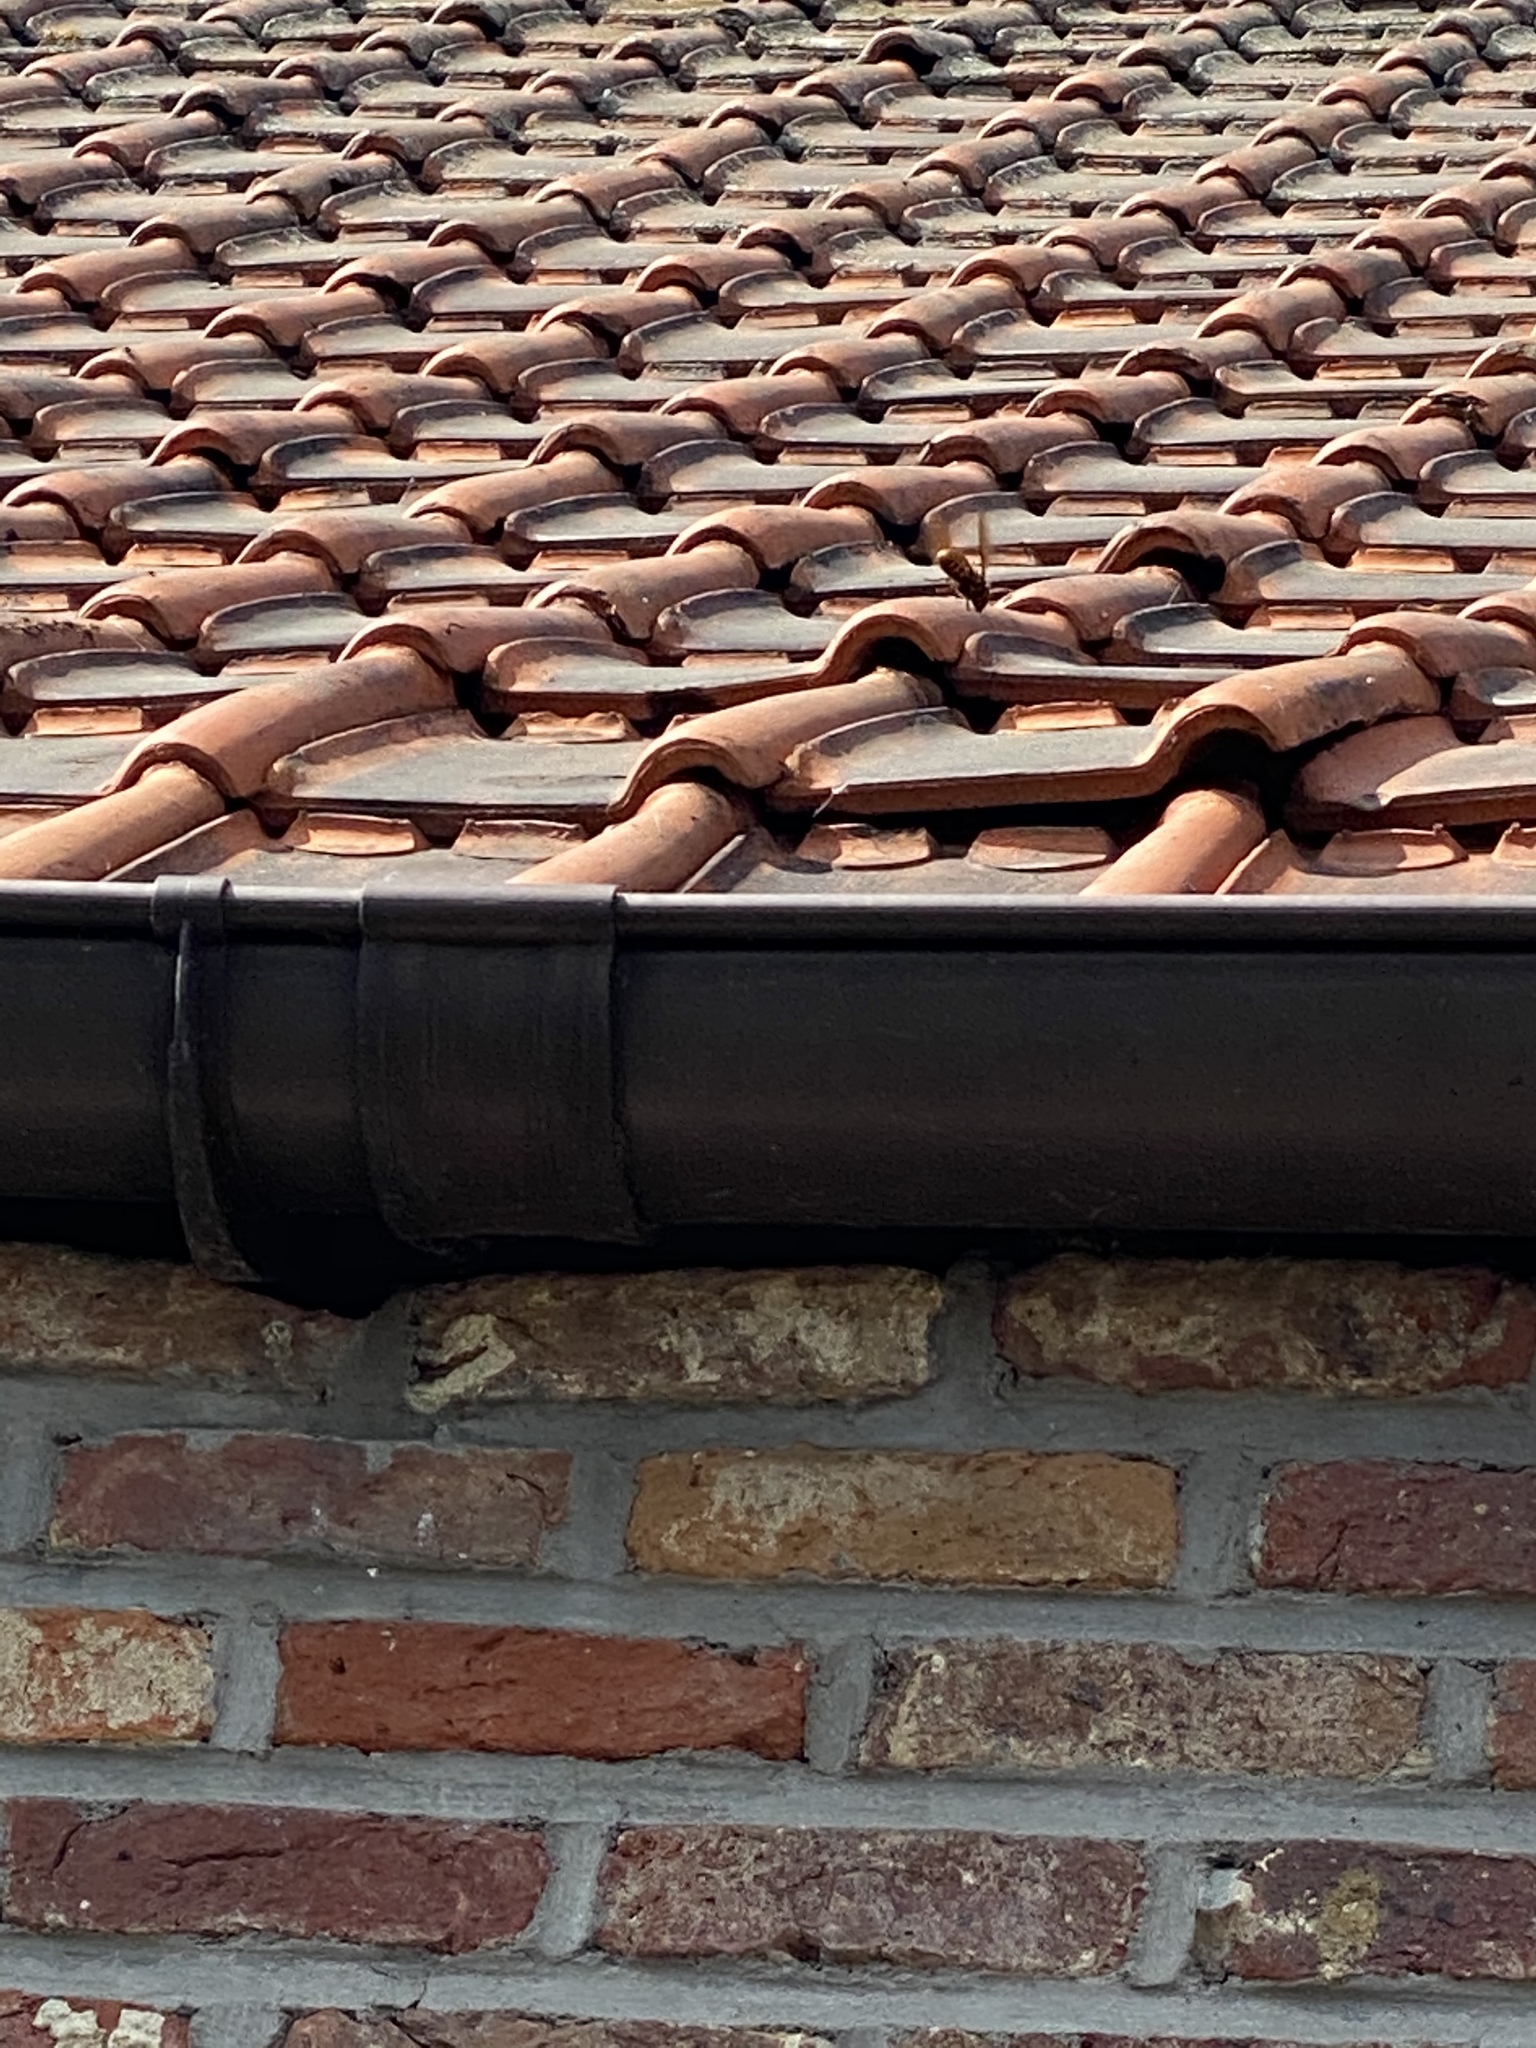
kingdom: Animalia
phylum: Arthropoda
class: Insecta
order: Hymenoptera
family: Vespidae
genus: Vespa
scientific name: Vespa crabro
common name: Hornet
